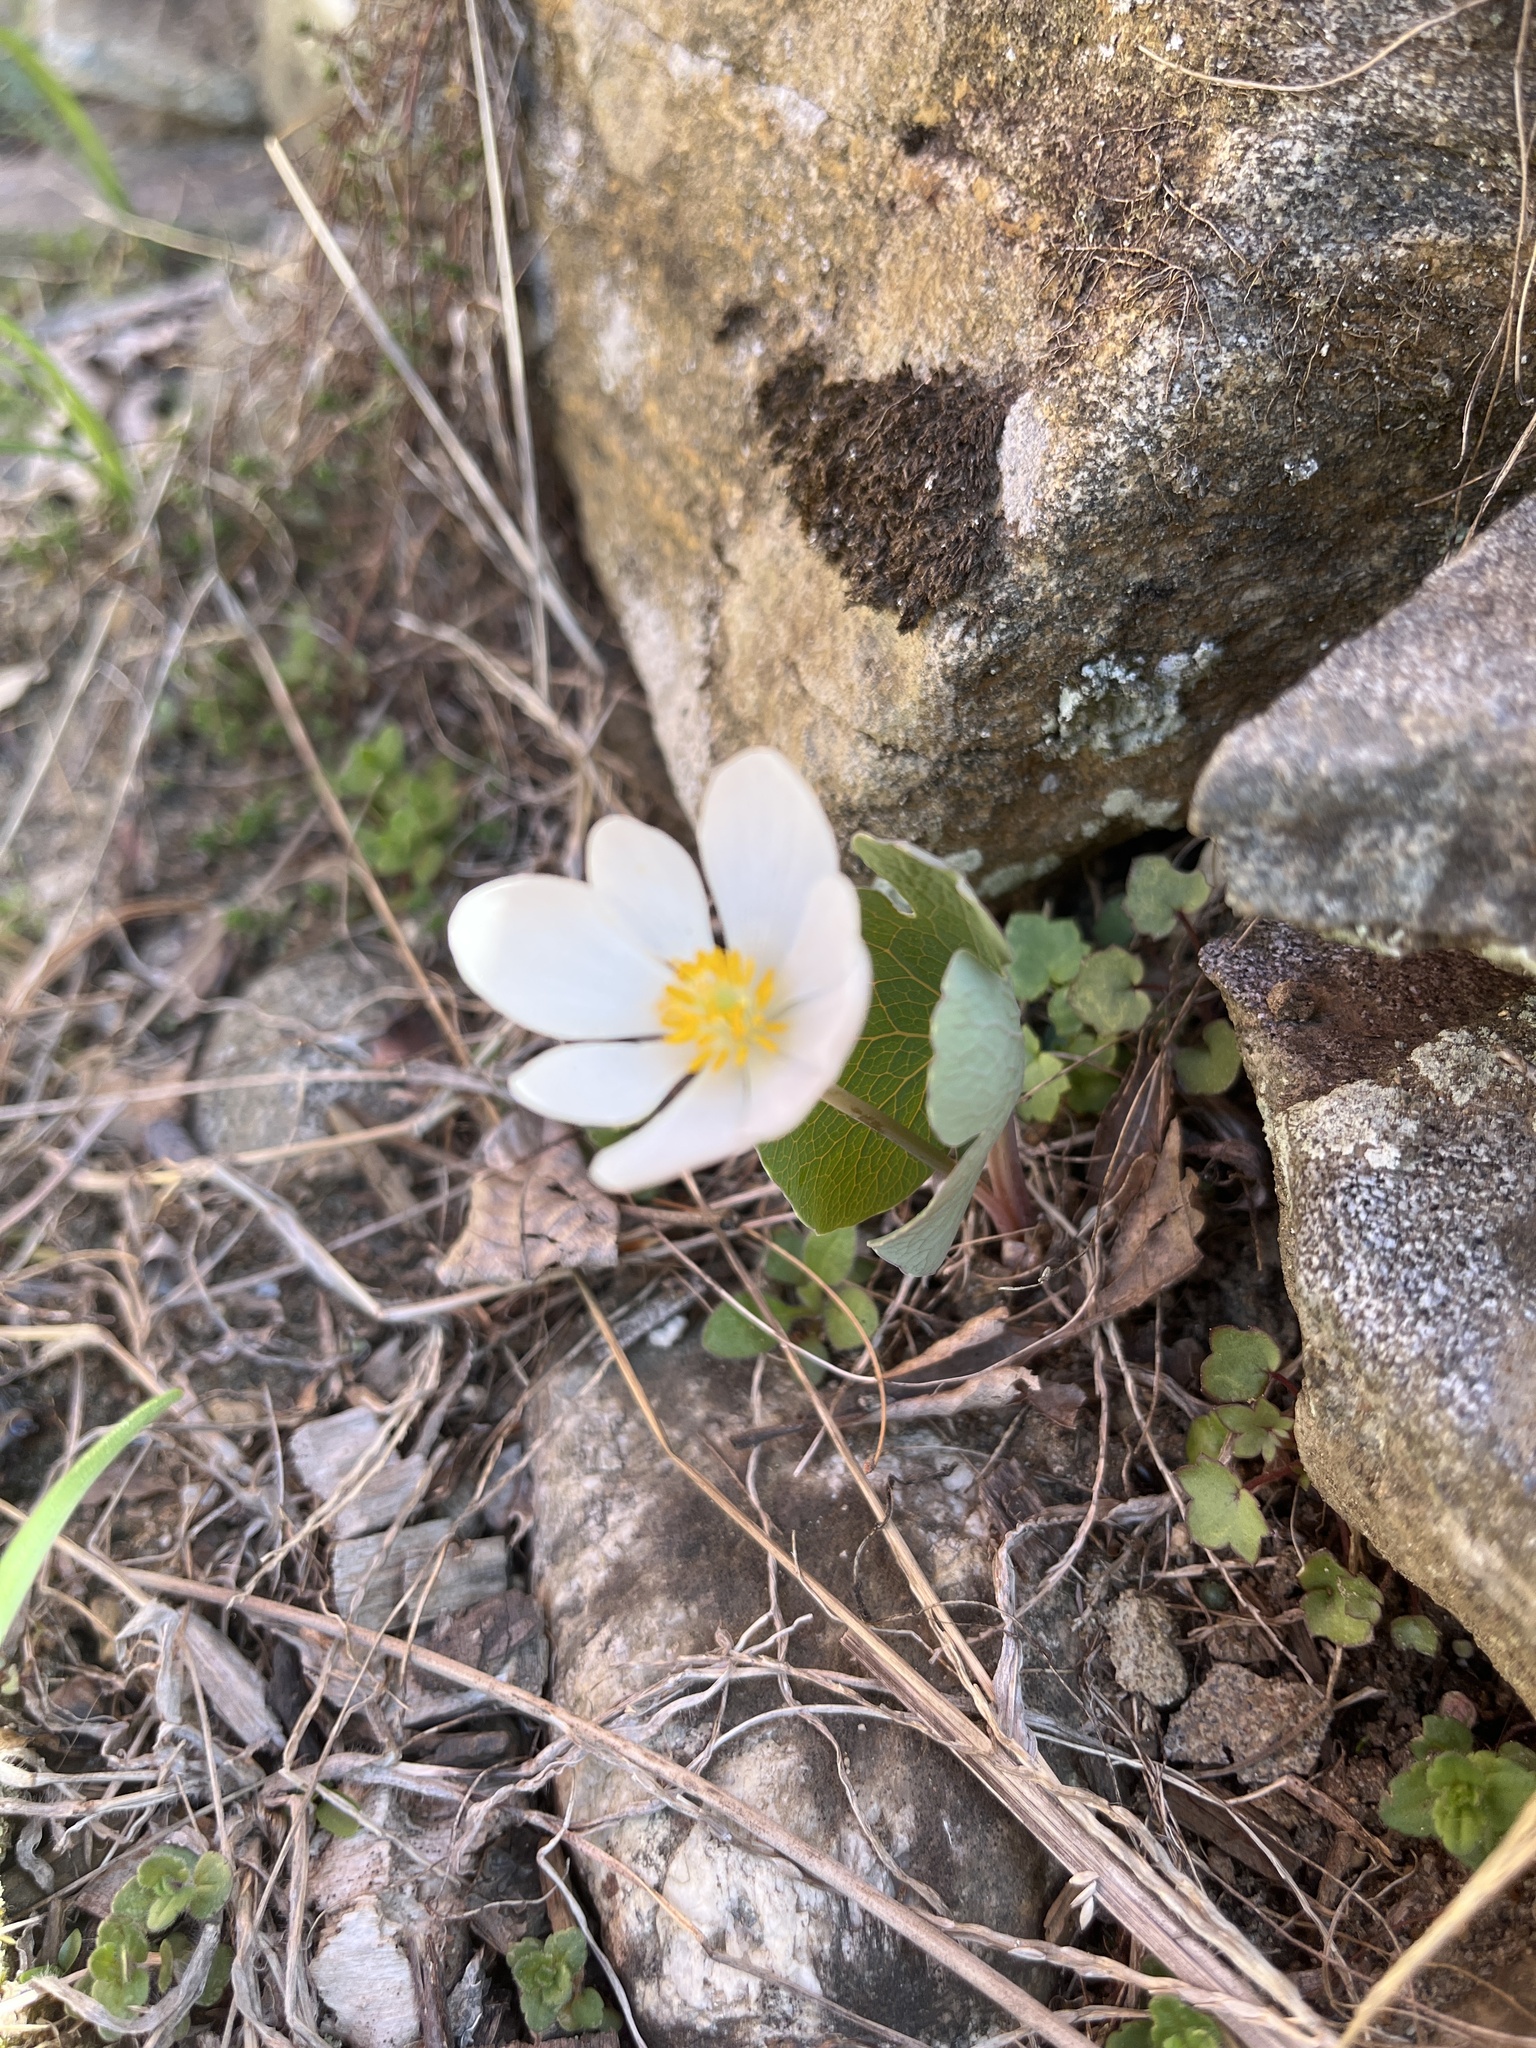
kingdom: Plantae
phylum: Tracheophyta
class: Magnoliopsida
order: Ranunculales
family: Papaveraceae
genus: Sanguinaria
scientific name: Sanguinaria canadensis
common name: Bloodroot
